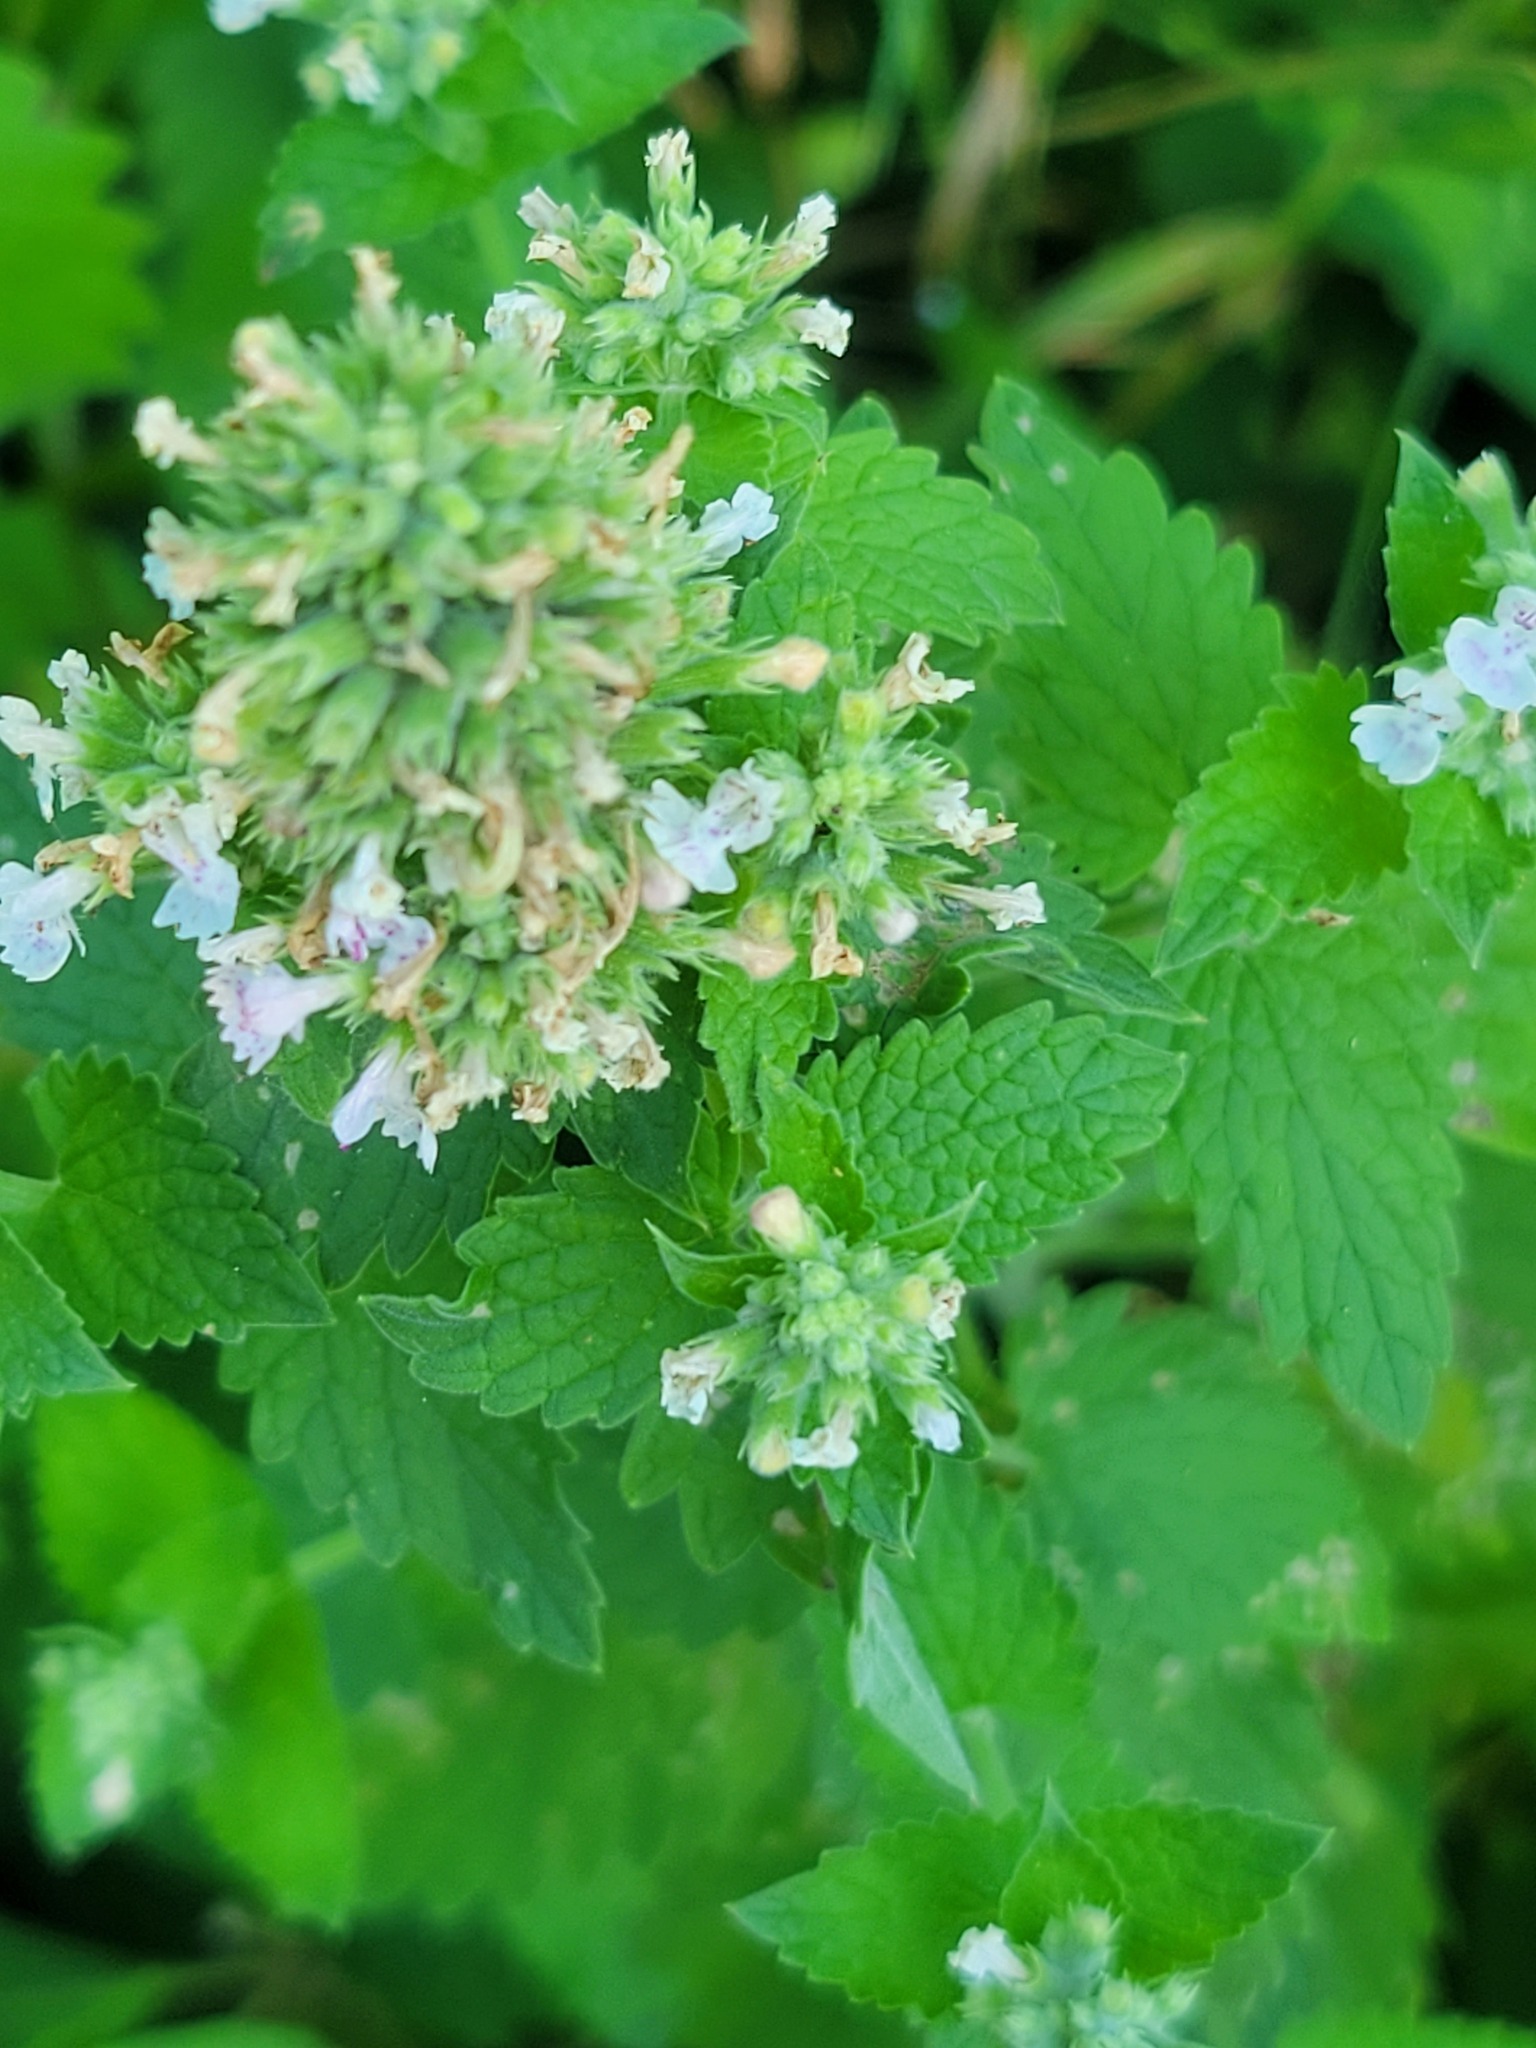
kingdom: Plantae
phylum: Tracheophyta
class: Magnoliopsida
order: Lamiales
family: Lamiaceae
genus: Nepeta
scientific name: Nepeta cataria
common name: Catnip
